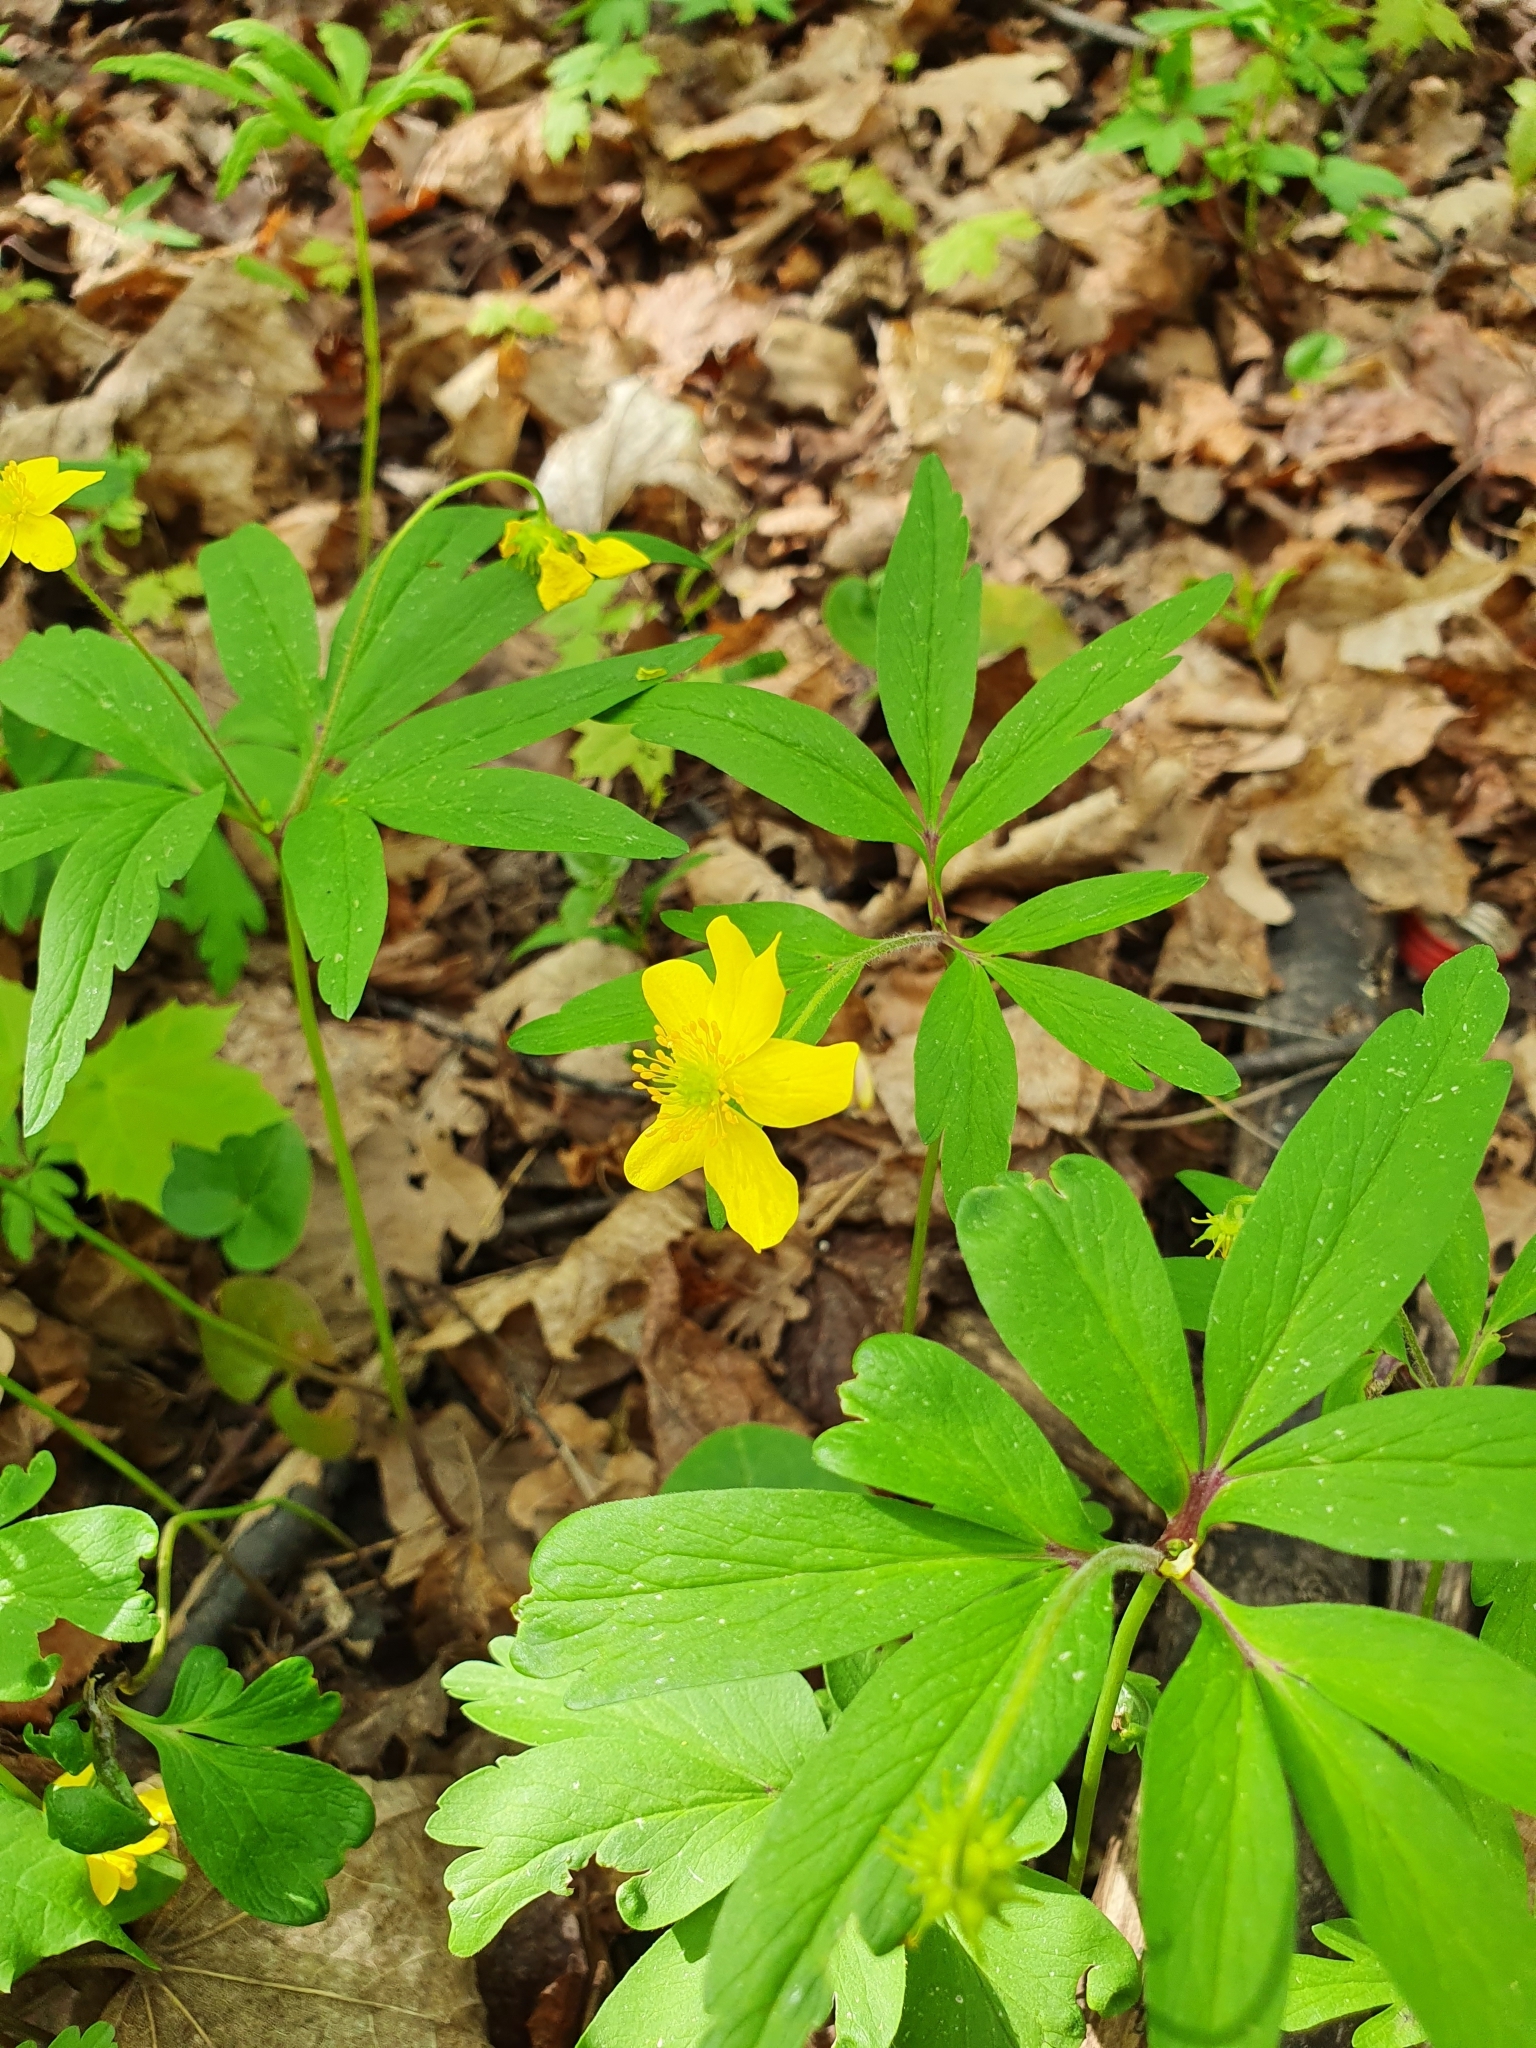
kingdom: Plantae
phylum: Tracheophyta
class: Magnoliopsida
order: Ranunculales
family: Ranunculaceae
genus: Anemone
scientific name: Anemone ranunculoides
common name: Yellow anemone
